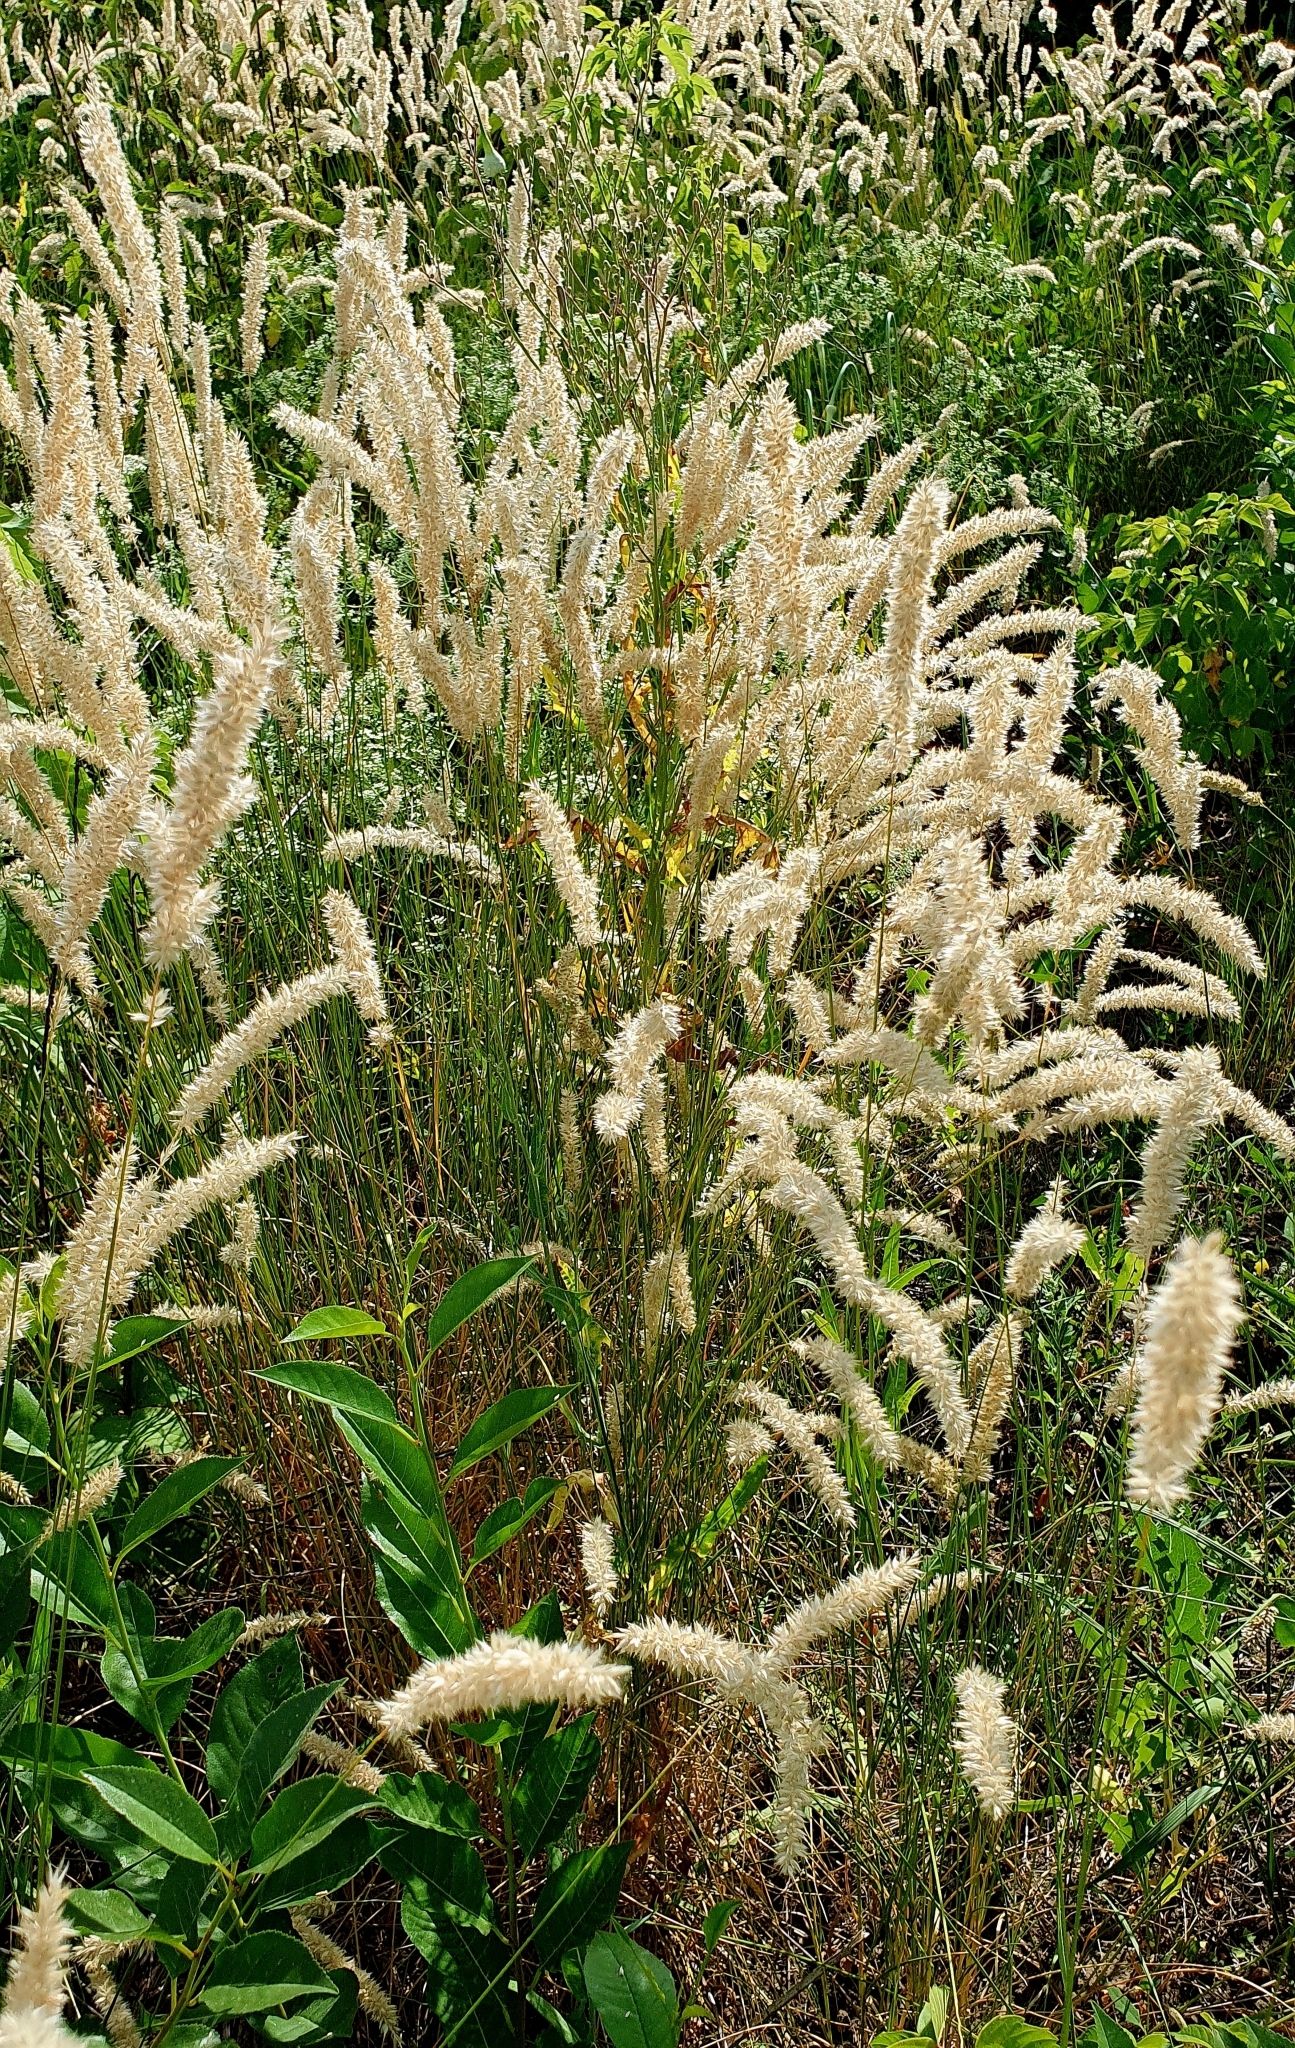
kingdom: Plantae
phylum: Tracheophyta
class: Liliopsida
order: Poales
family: Poaceae
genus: Melica
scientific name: Melica transsilvanica
